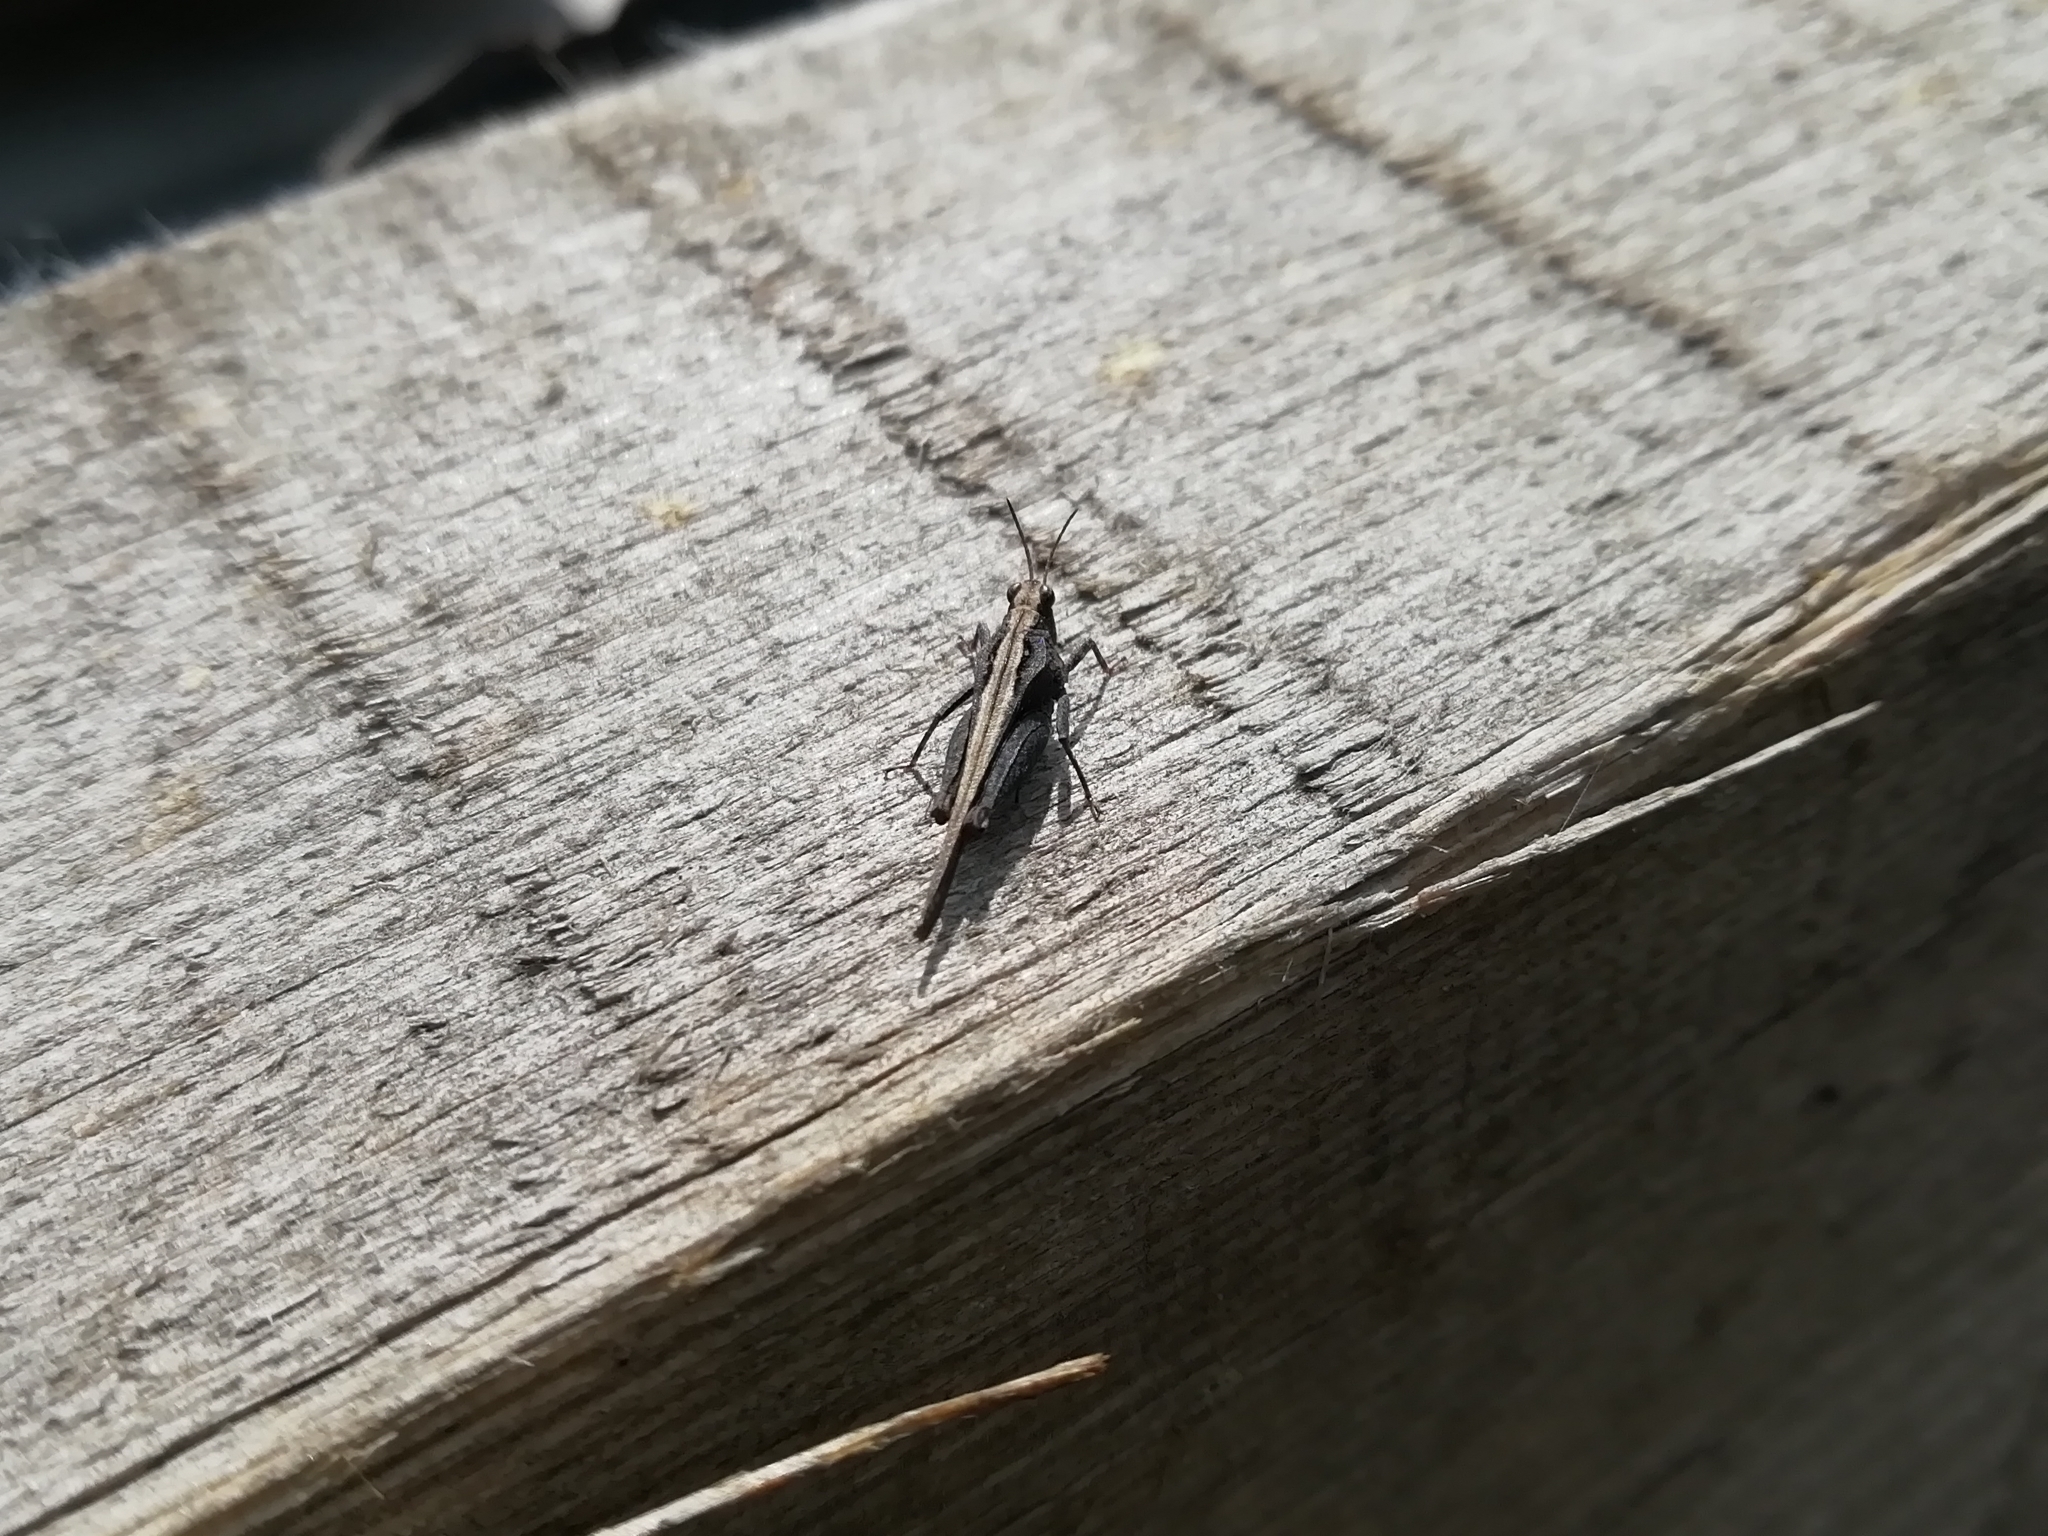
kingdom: Animalia
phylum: Arthropoda
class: Insecta
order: Orthoptera
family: Tetrigidae
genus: Tetrix
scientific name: Tetrix subulata
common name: Slender ground-hopper
